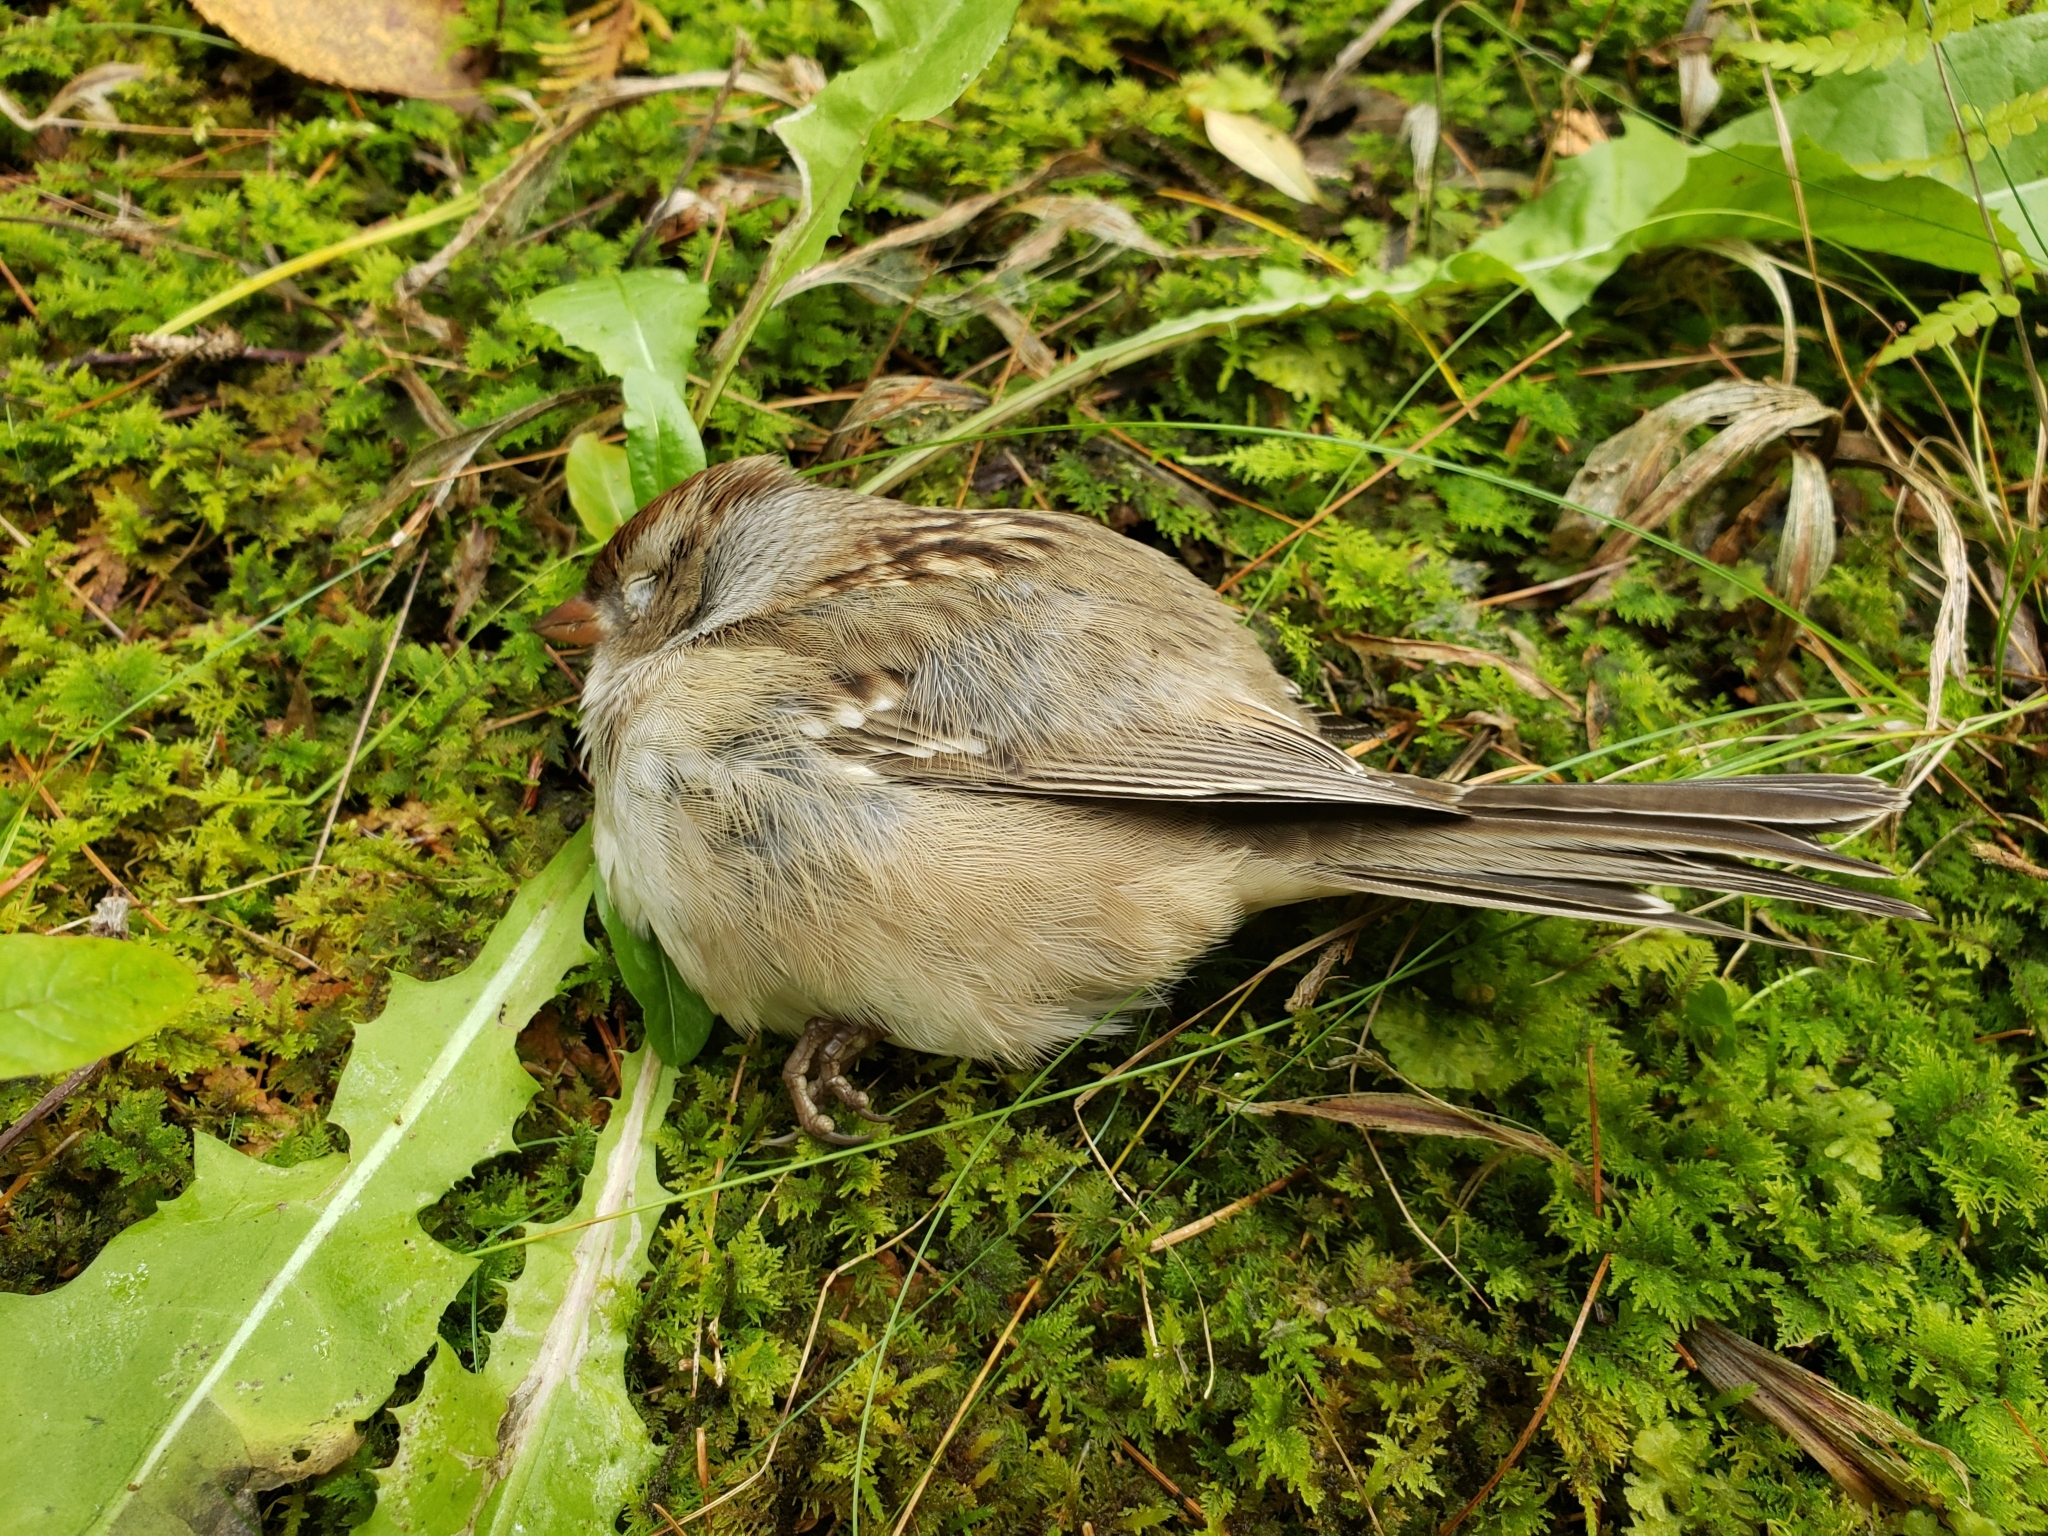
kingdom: Animalia
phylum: Chordata
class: Aves
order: Passeriformes
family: Passerellidae
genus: Zonotrichia
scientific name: Zonotrichia leucophrys
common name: White-crowned sparrow
